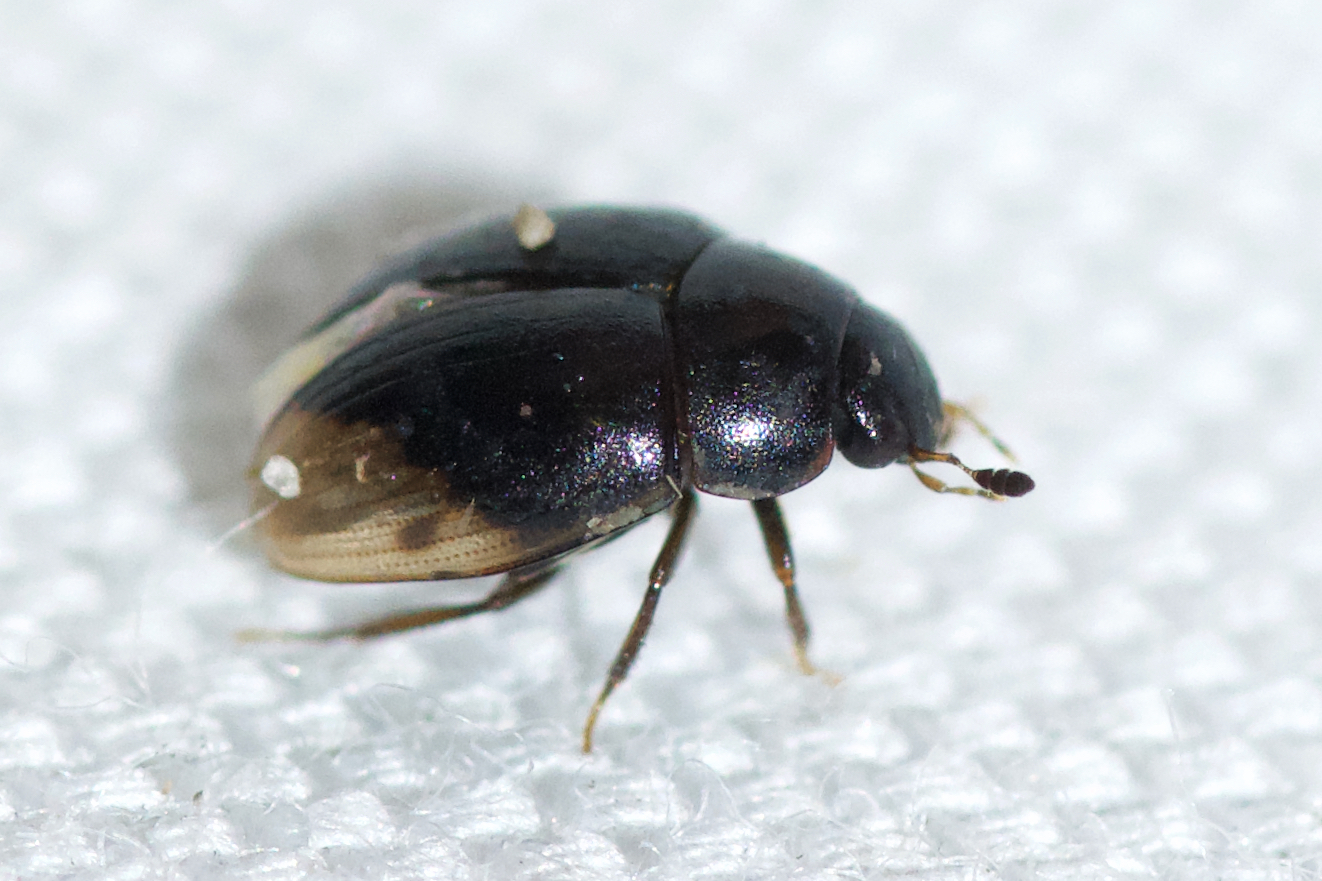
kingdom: Animalia
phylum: Arthropoda
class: Insecta
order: Coleoptera
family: Hydrophilidae
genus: Cercyon
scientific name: Cercyon praetextatus
